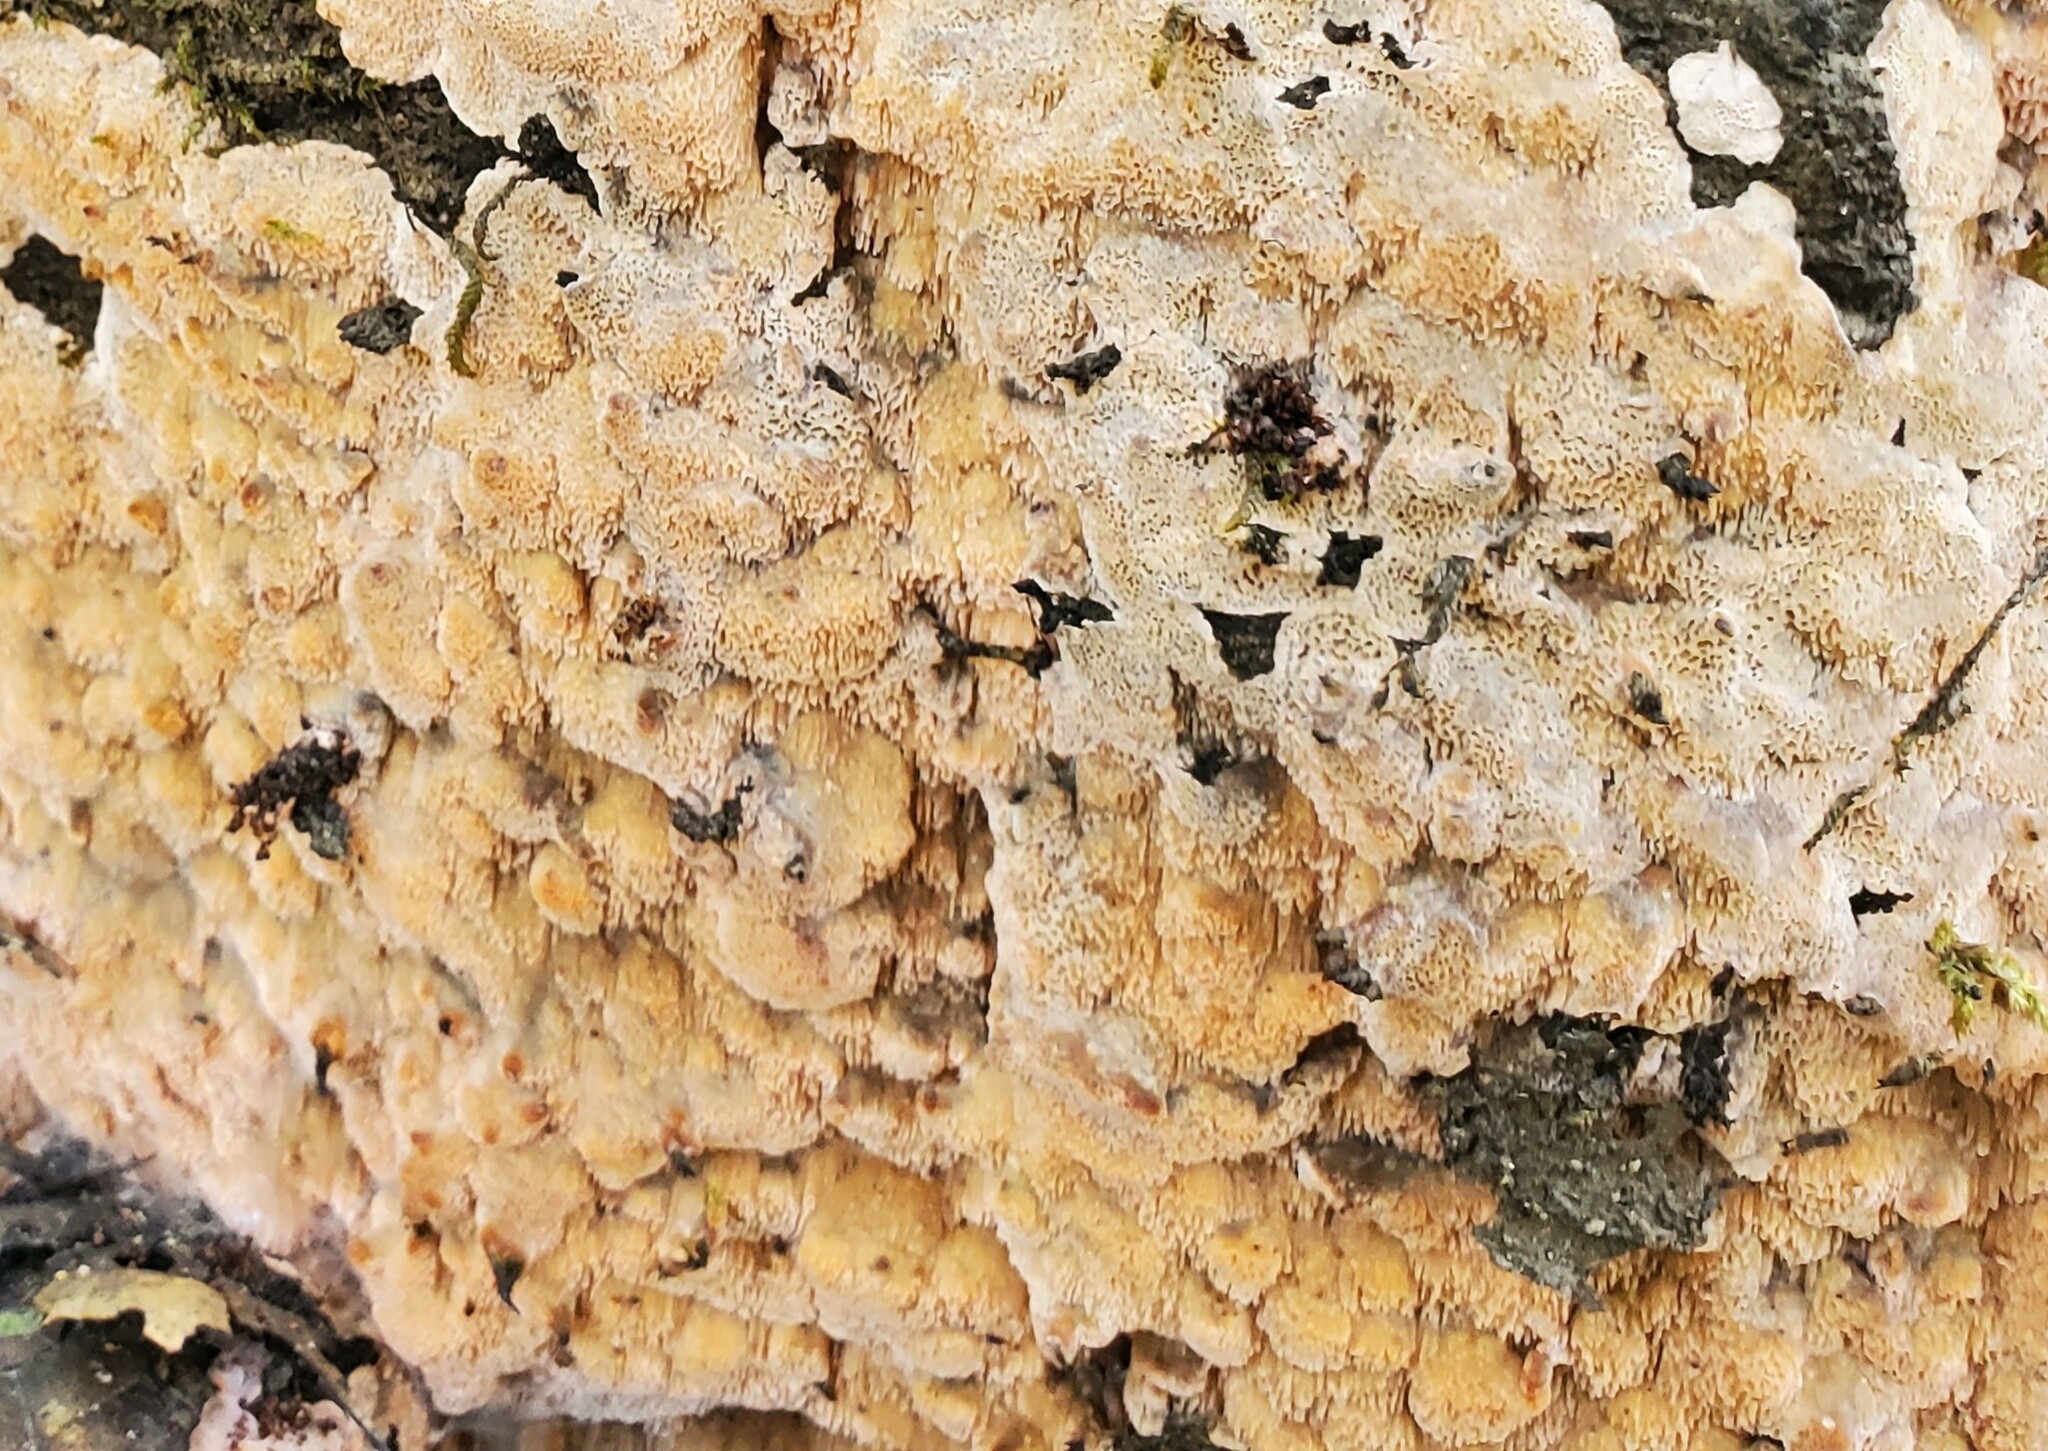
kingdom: Fungi
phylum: Basidiomycota
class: Agaricomycetes
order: Polyporales
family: Polyporaceae
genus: Rhodonia
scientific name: Rhodonia placenta
